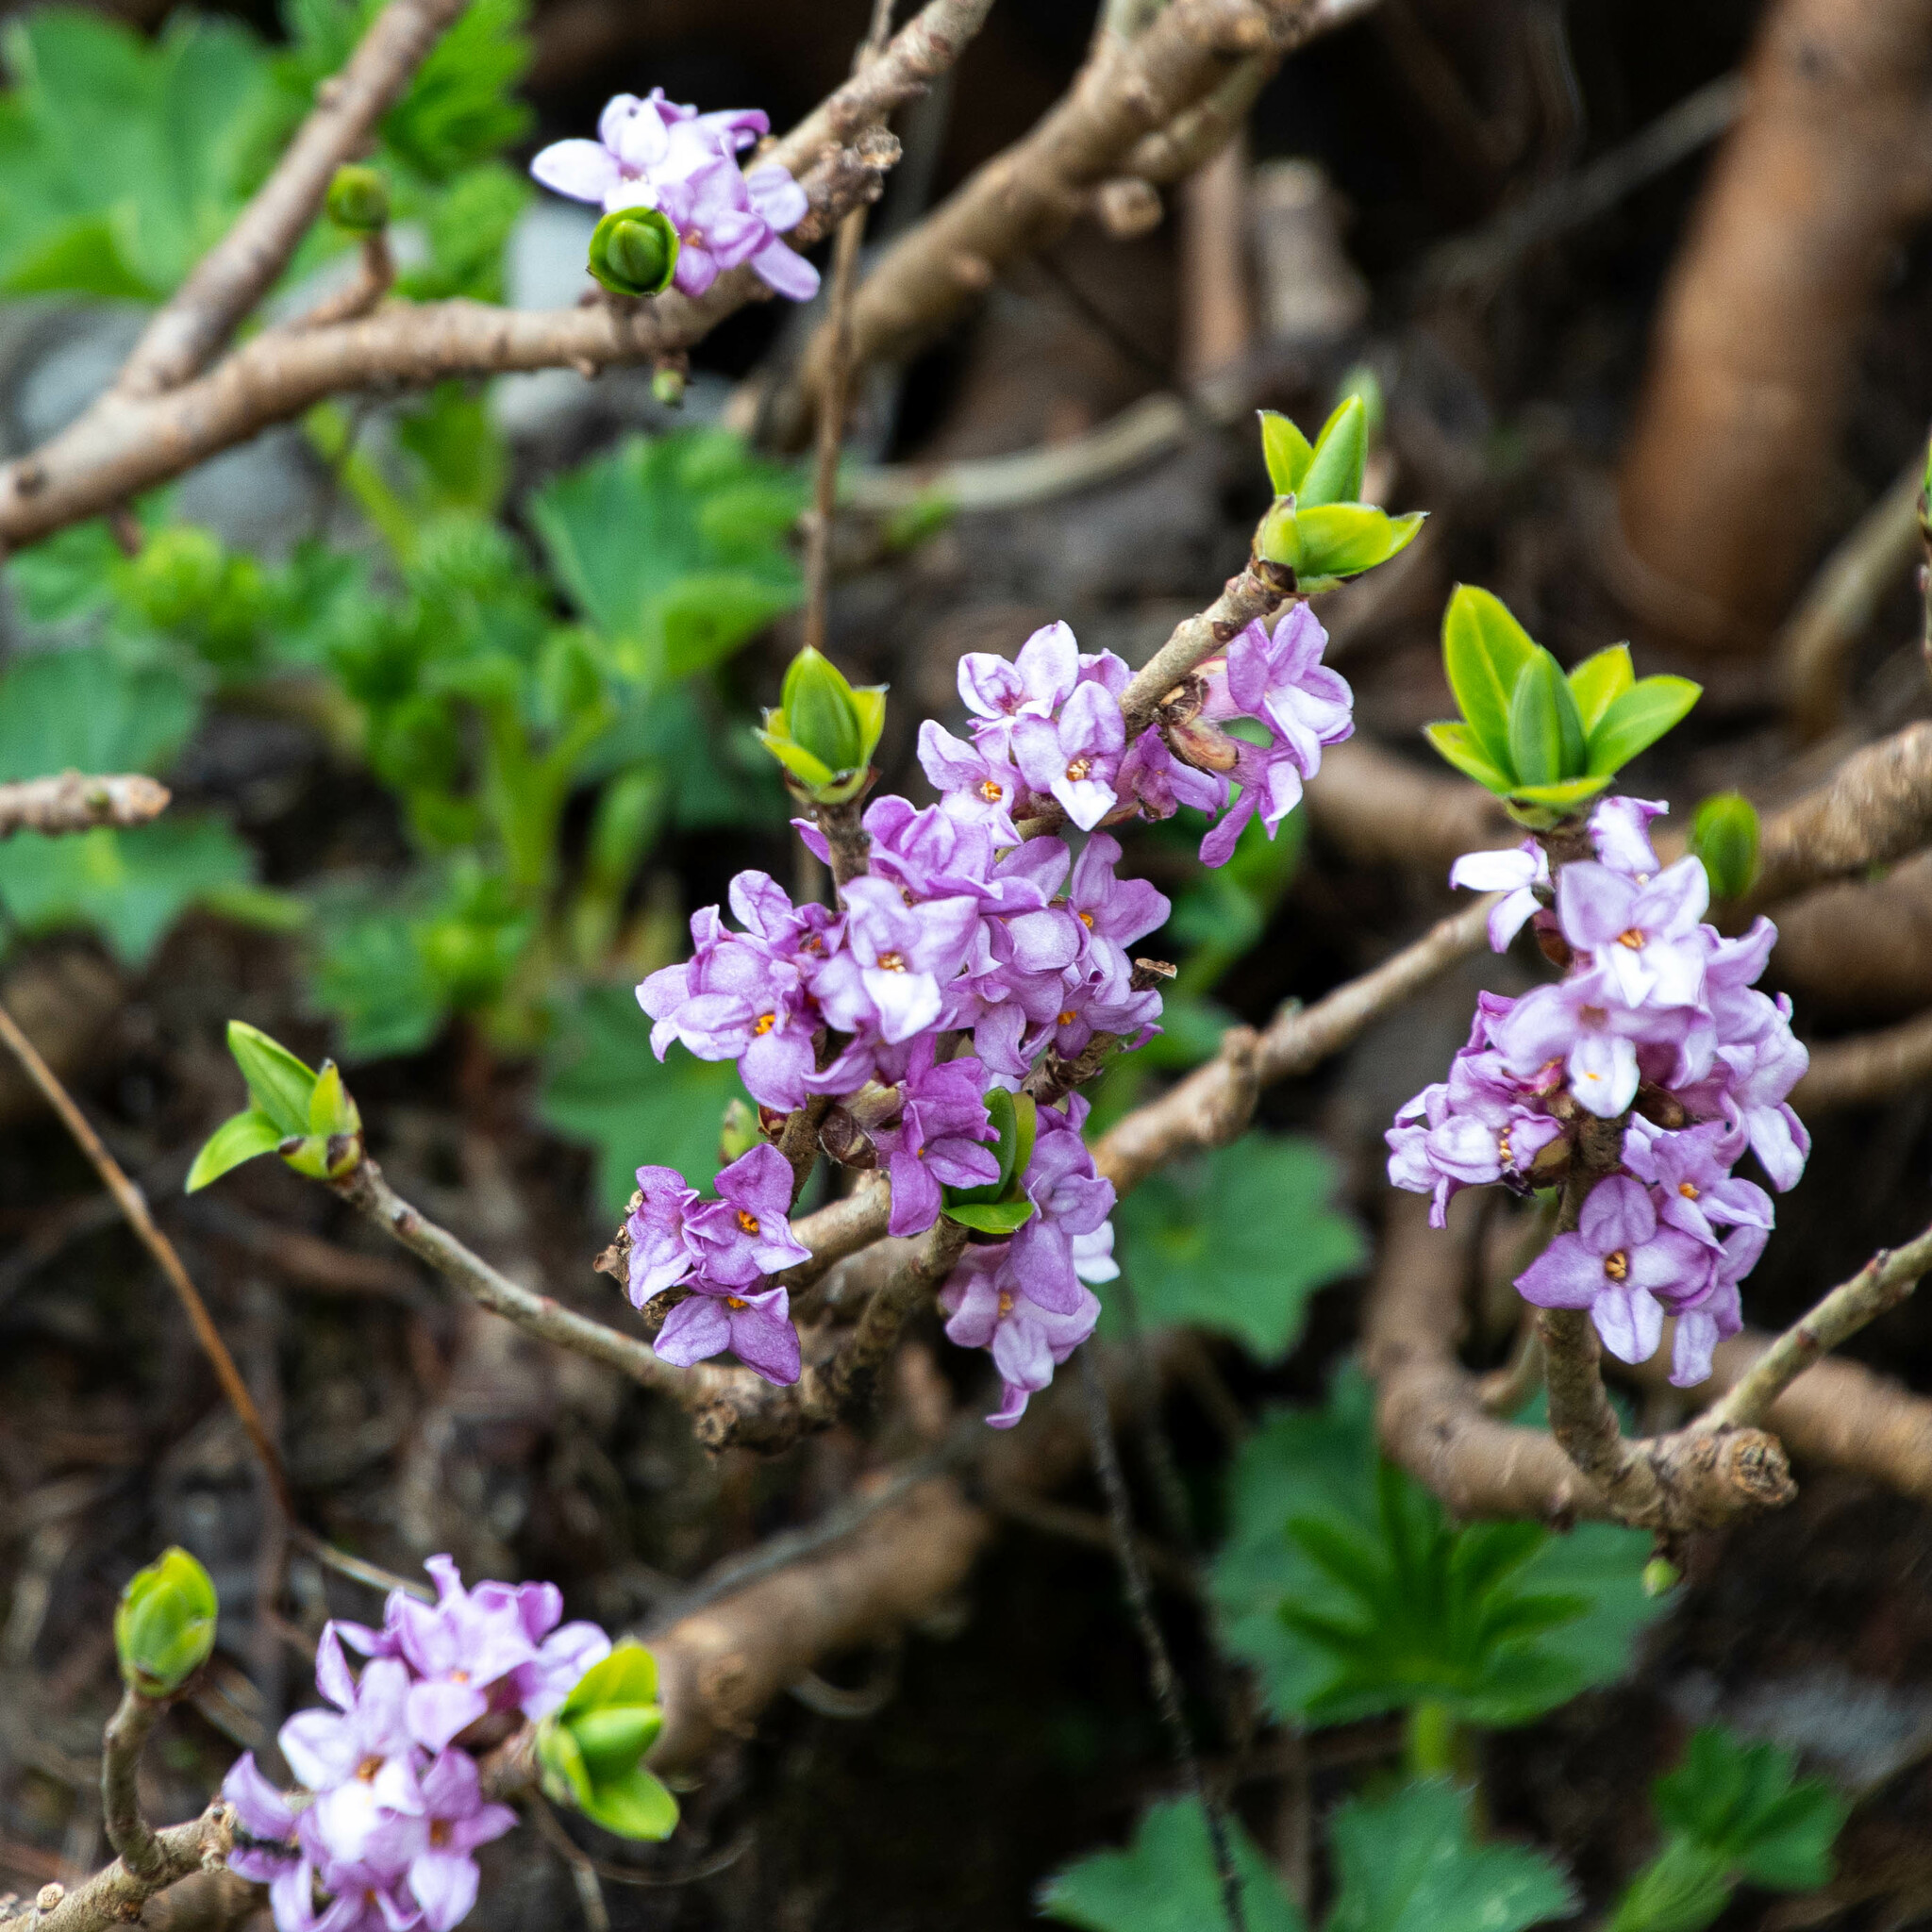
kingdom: Plantae
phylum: Tracheophyta
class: Magnoliopsida
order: Malvales
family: Thymelaeaceae
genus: Daphne
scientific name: Daphne mezereum
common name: Mezereon
